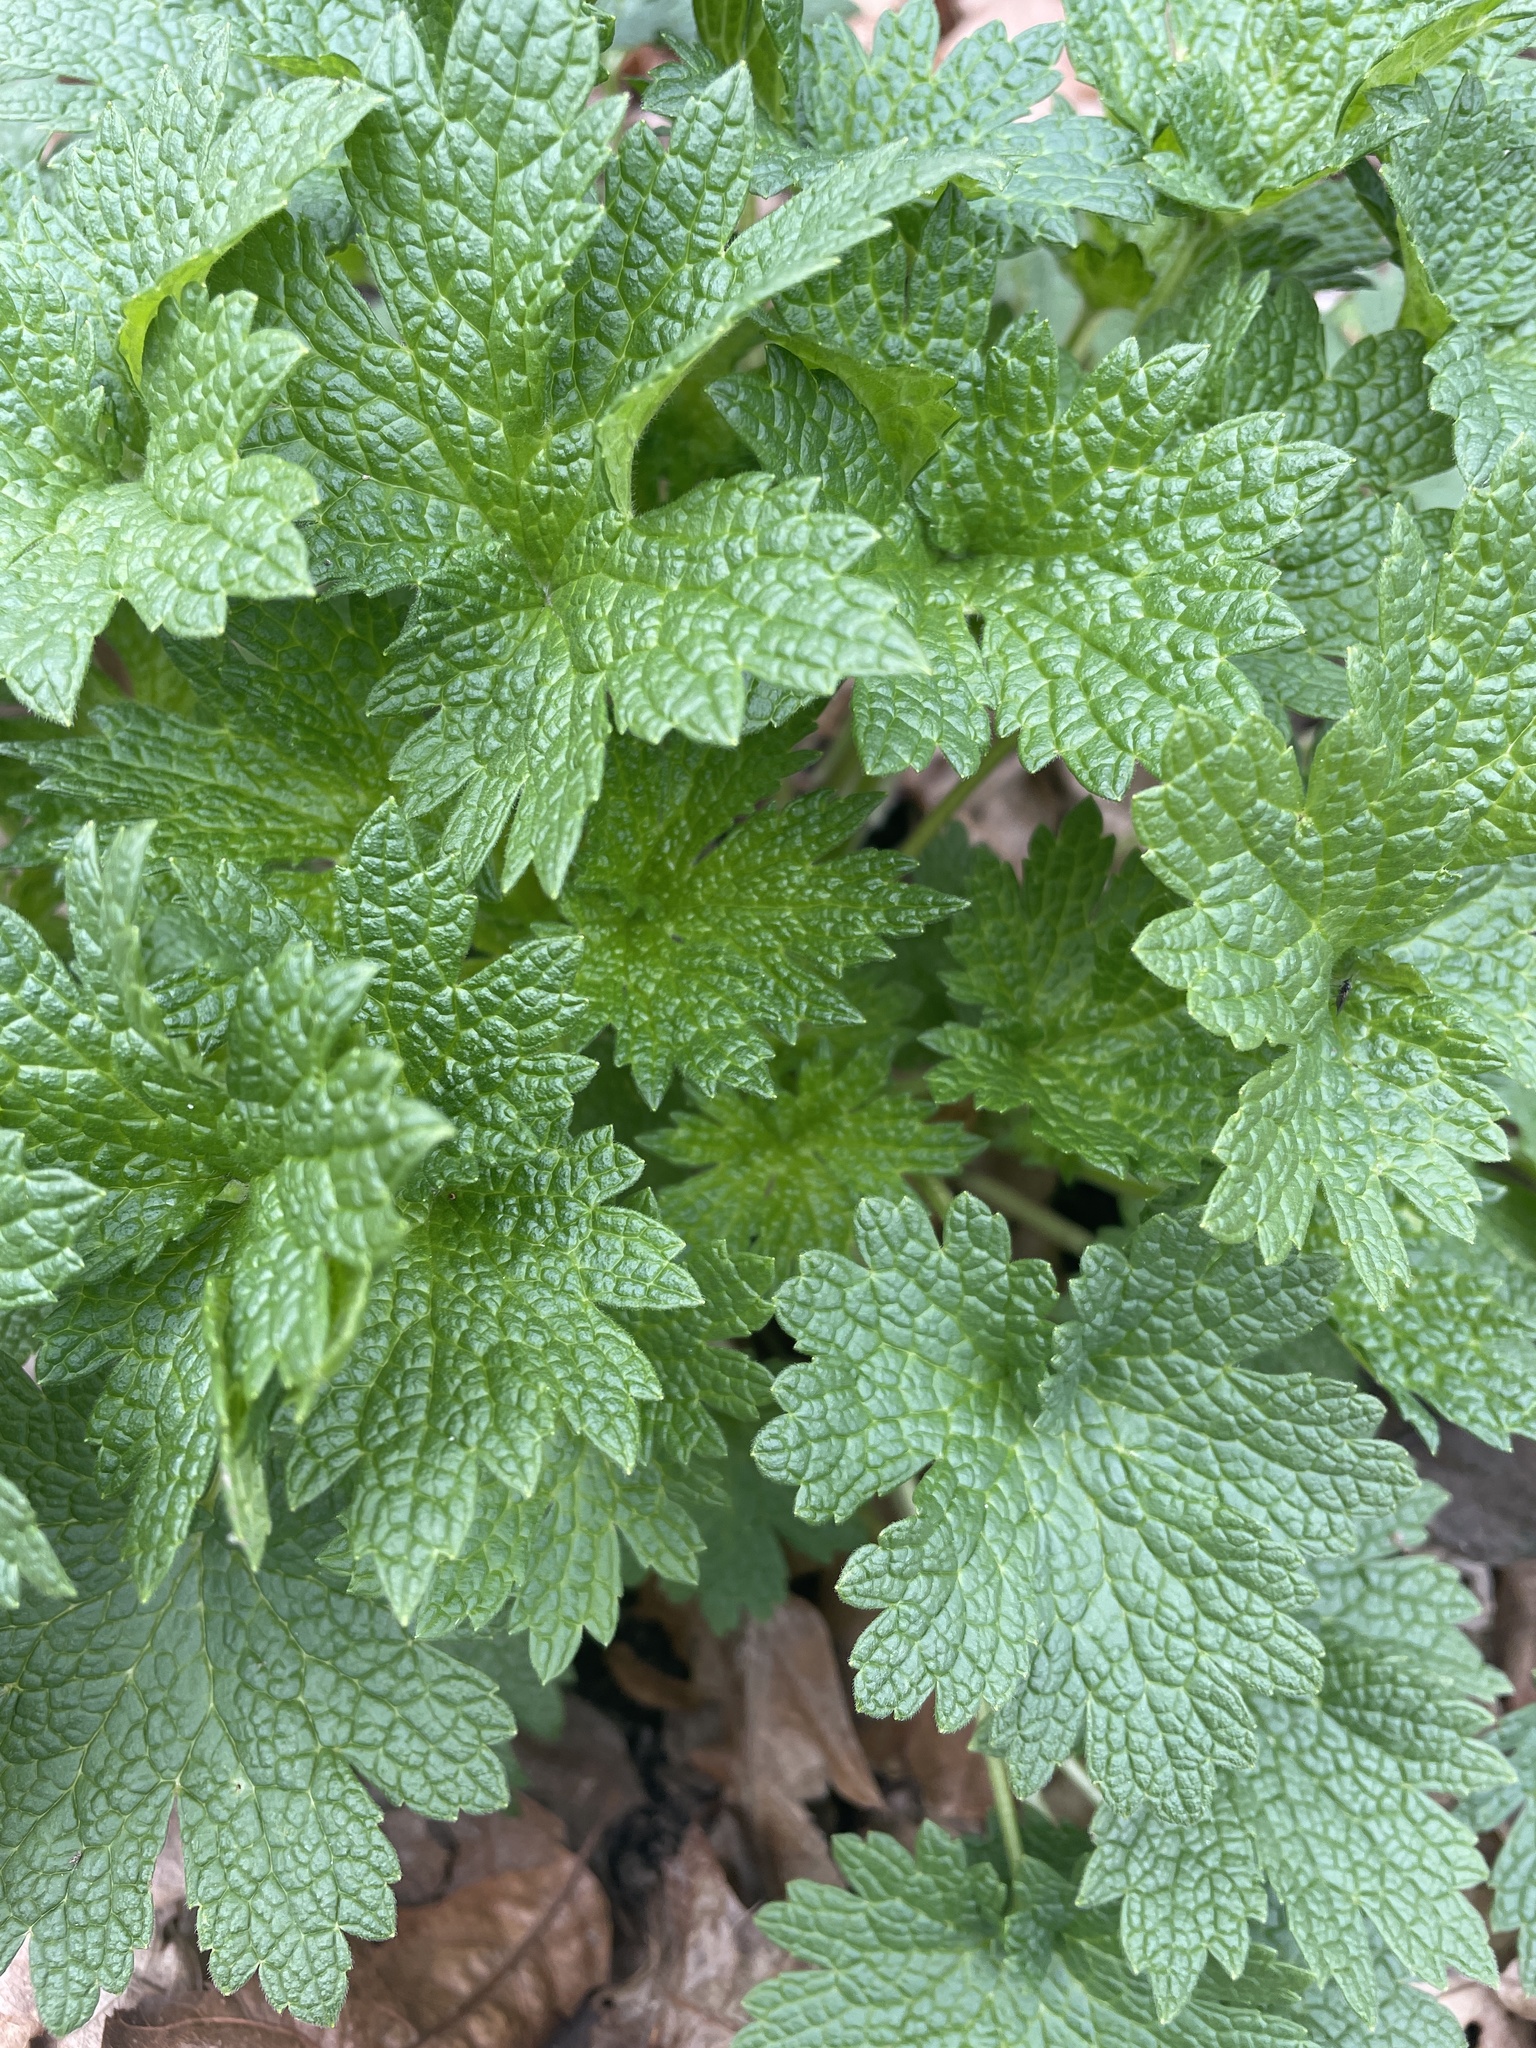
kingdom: Plantae
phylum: Tracheophyta
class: Magnoliopsida
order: Lamiales
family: Lamiaceae
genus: Leonurus
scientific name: Leonurus cardiaca
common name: Motherwort
